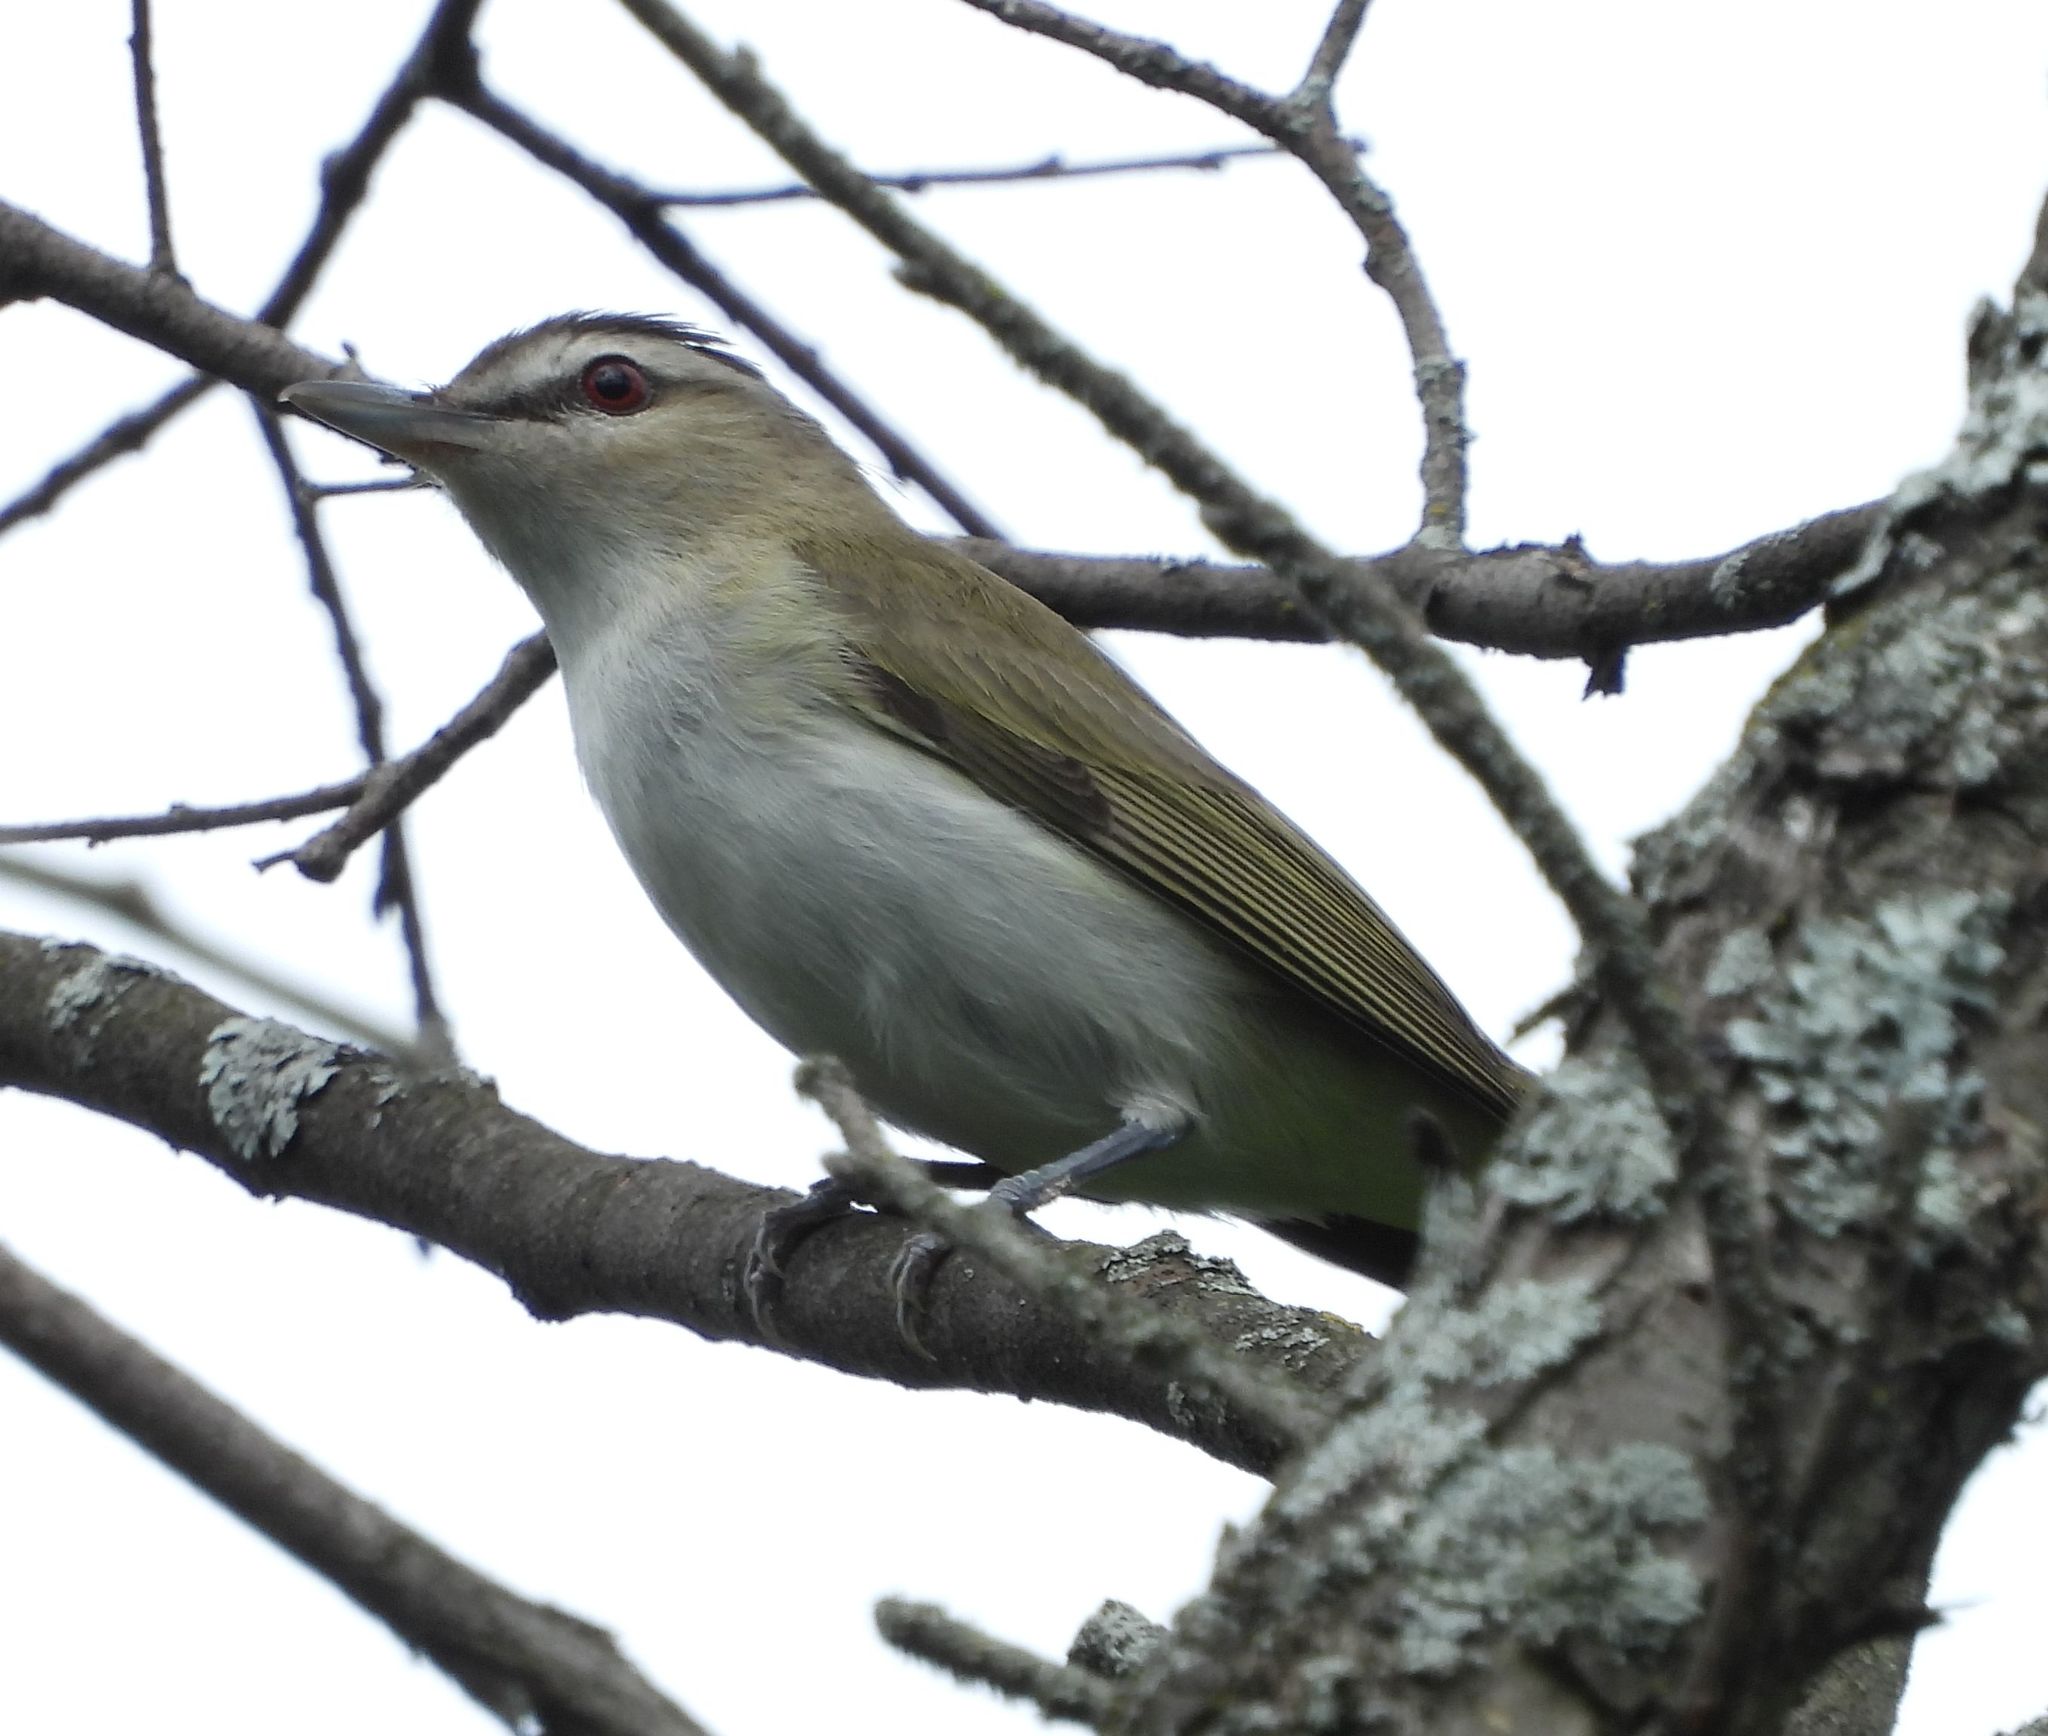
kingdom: Animalia
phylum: Chordata
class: Aves
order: Passeriformes
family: Vireonidae
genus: Vireo
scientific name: Vireo olivaceus
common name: Red-eyed vireo
